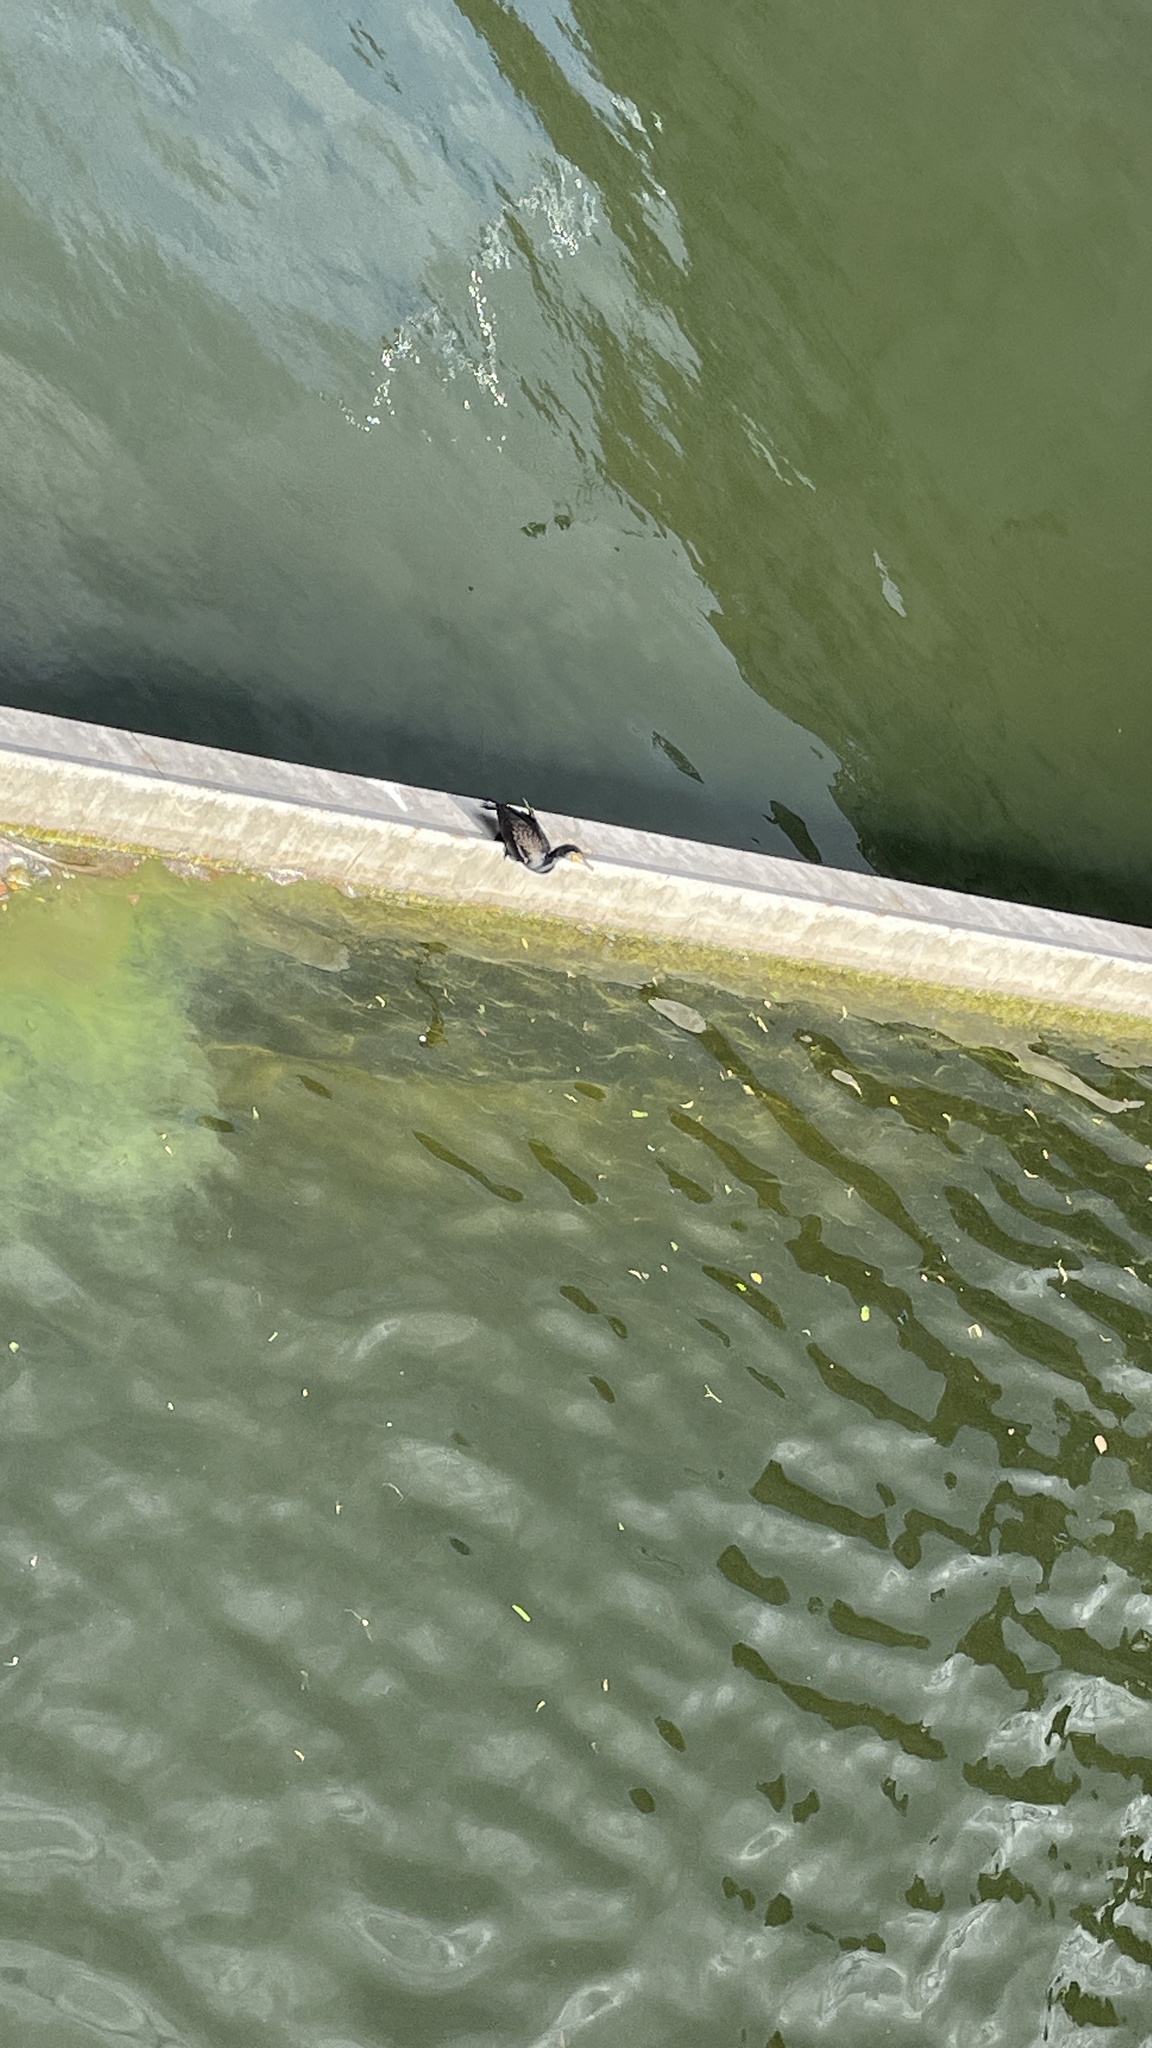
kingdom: Animalia
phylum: Chordata
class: Aves
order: Suliformes
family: Phalacrocoracidae
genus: Phalacrocorax
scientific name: Phalacrocorax carbo
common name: Great cormorant
